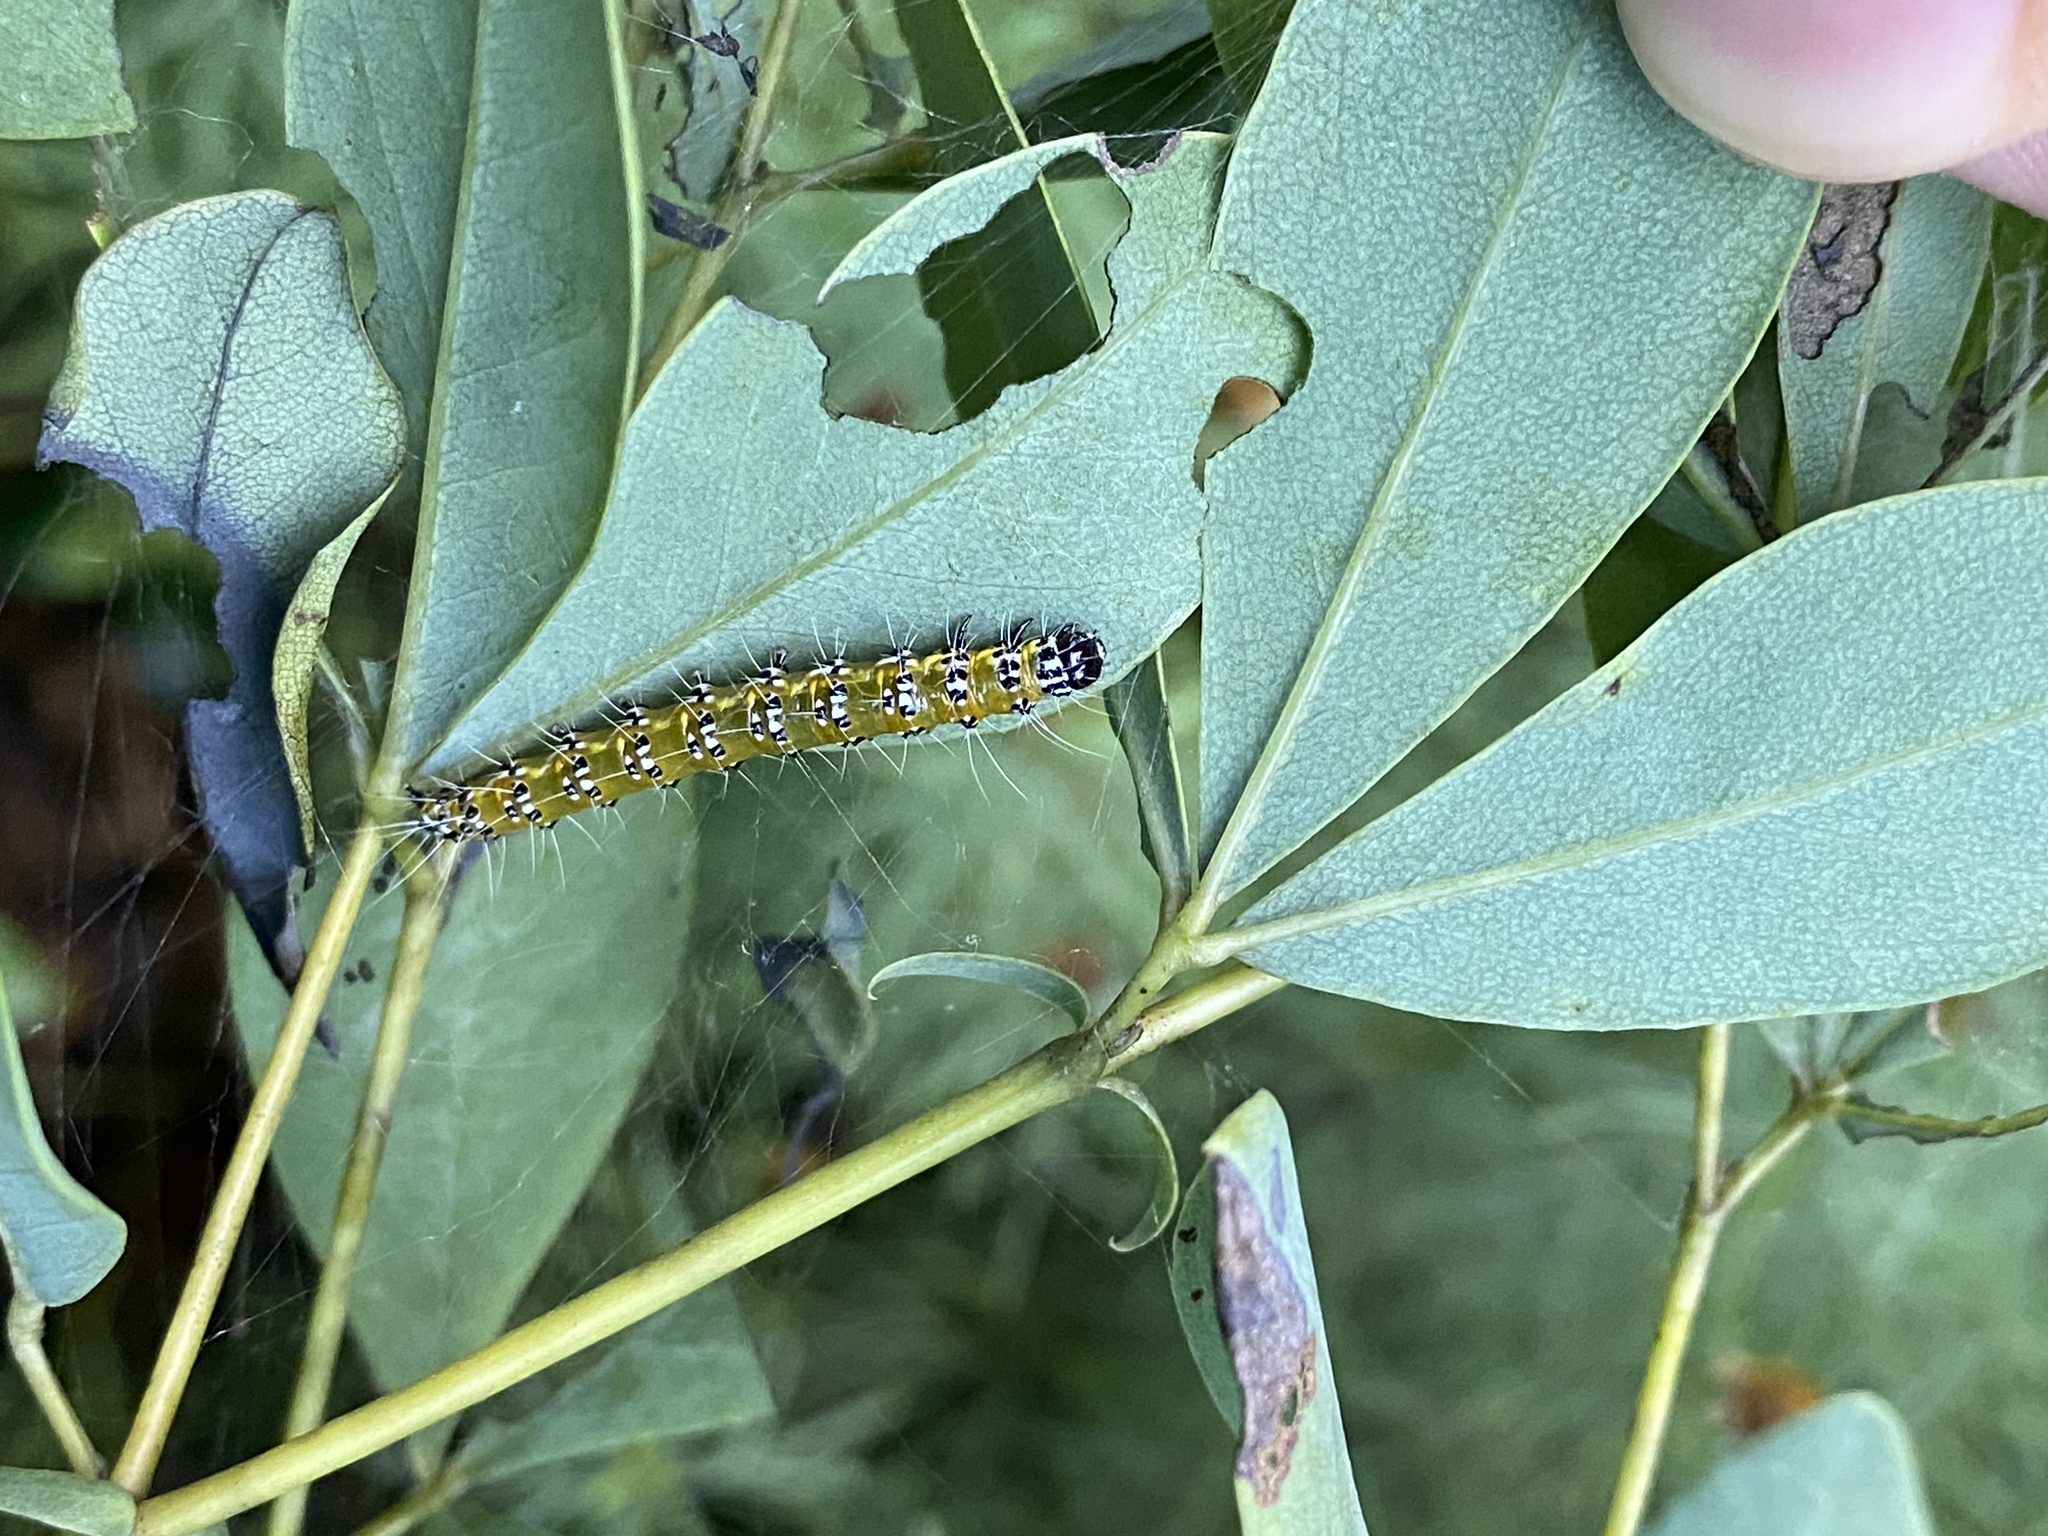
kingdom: Animalia
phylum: Arthropoda
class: Insecta
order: Lepidoptera
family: Crambidae
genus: Uresiphita
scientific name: Uresiphita reversalis
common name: Genista broom moth
